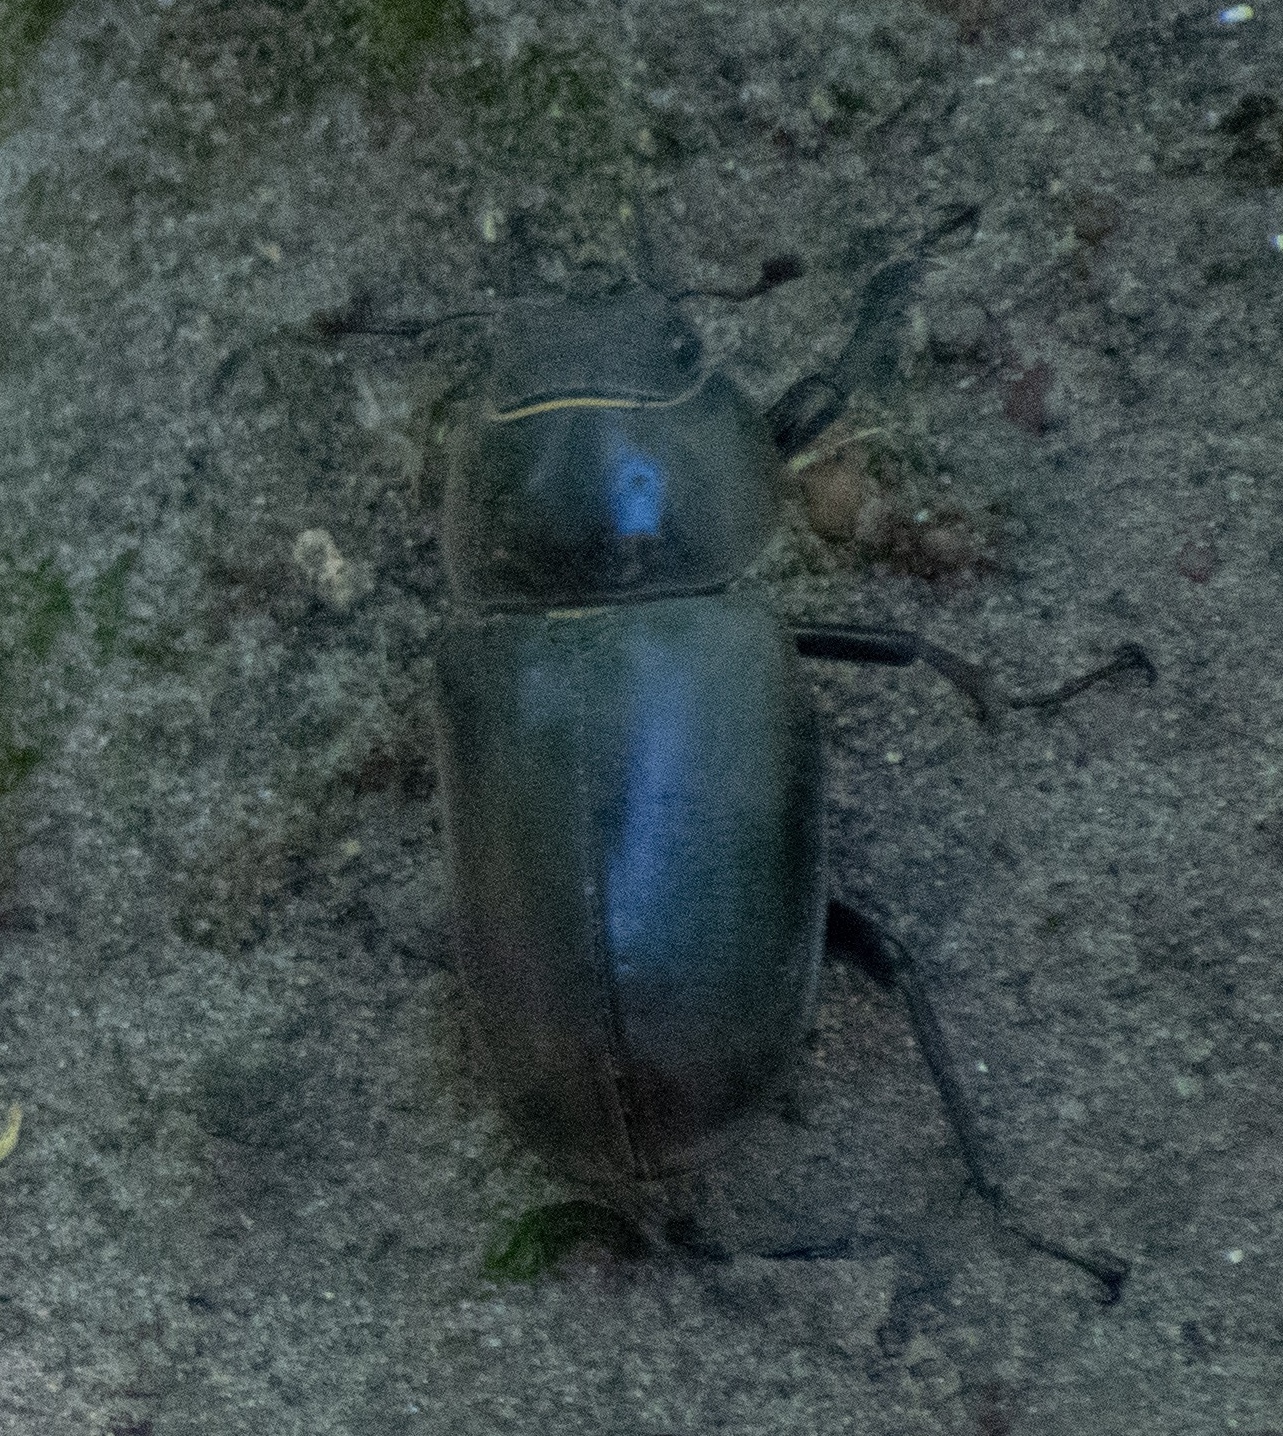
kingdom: Animalia
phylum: Arthropoda
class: Insecta
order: Coleoptera
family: Lucanidae
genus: Lucanus
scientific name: Lucanus cervus
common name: Stag beetle
